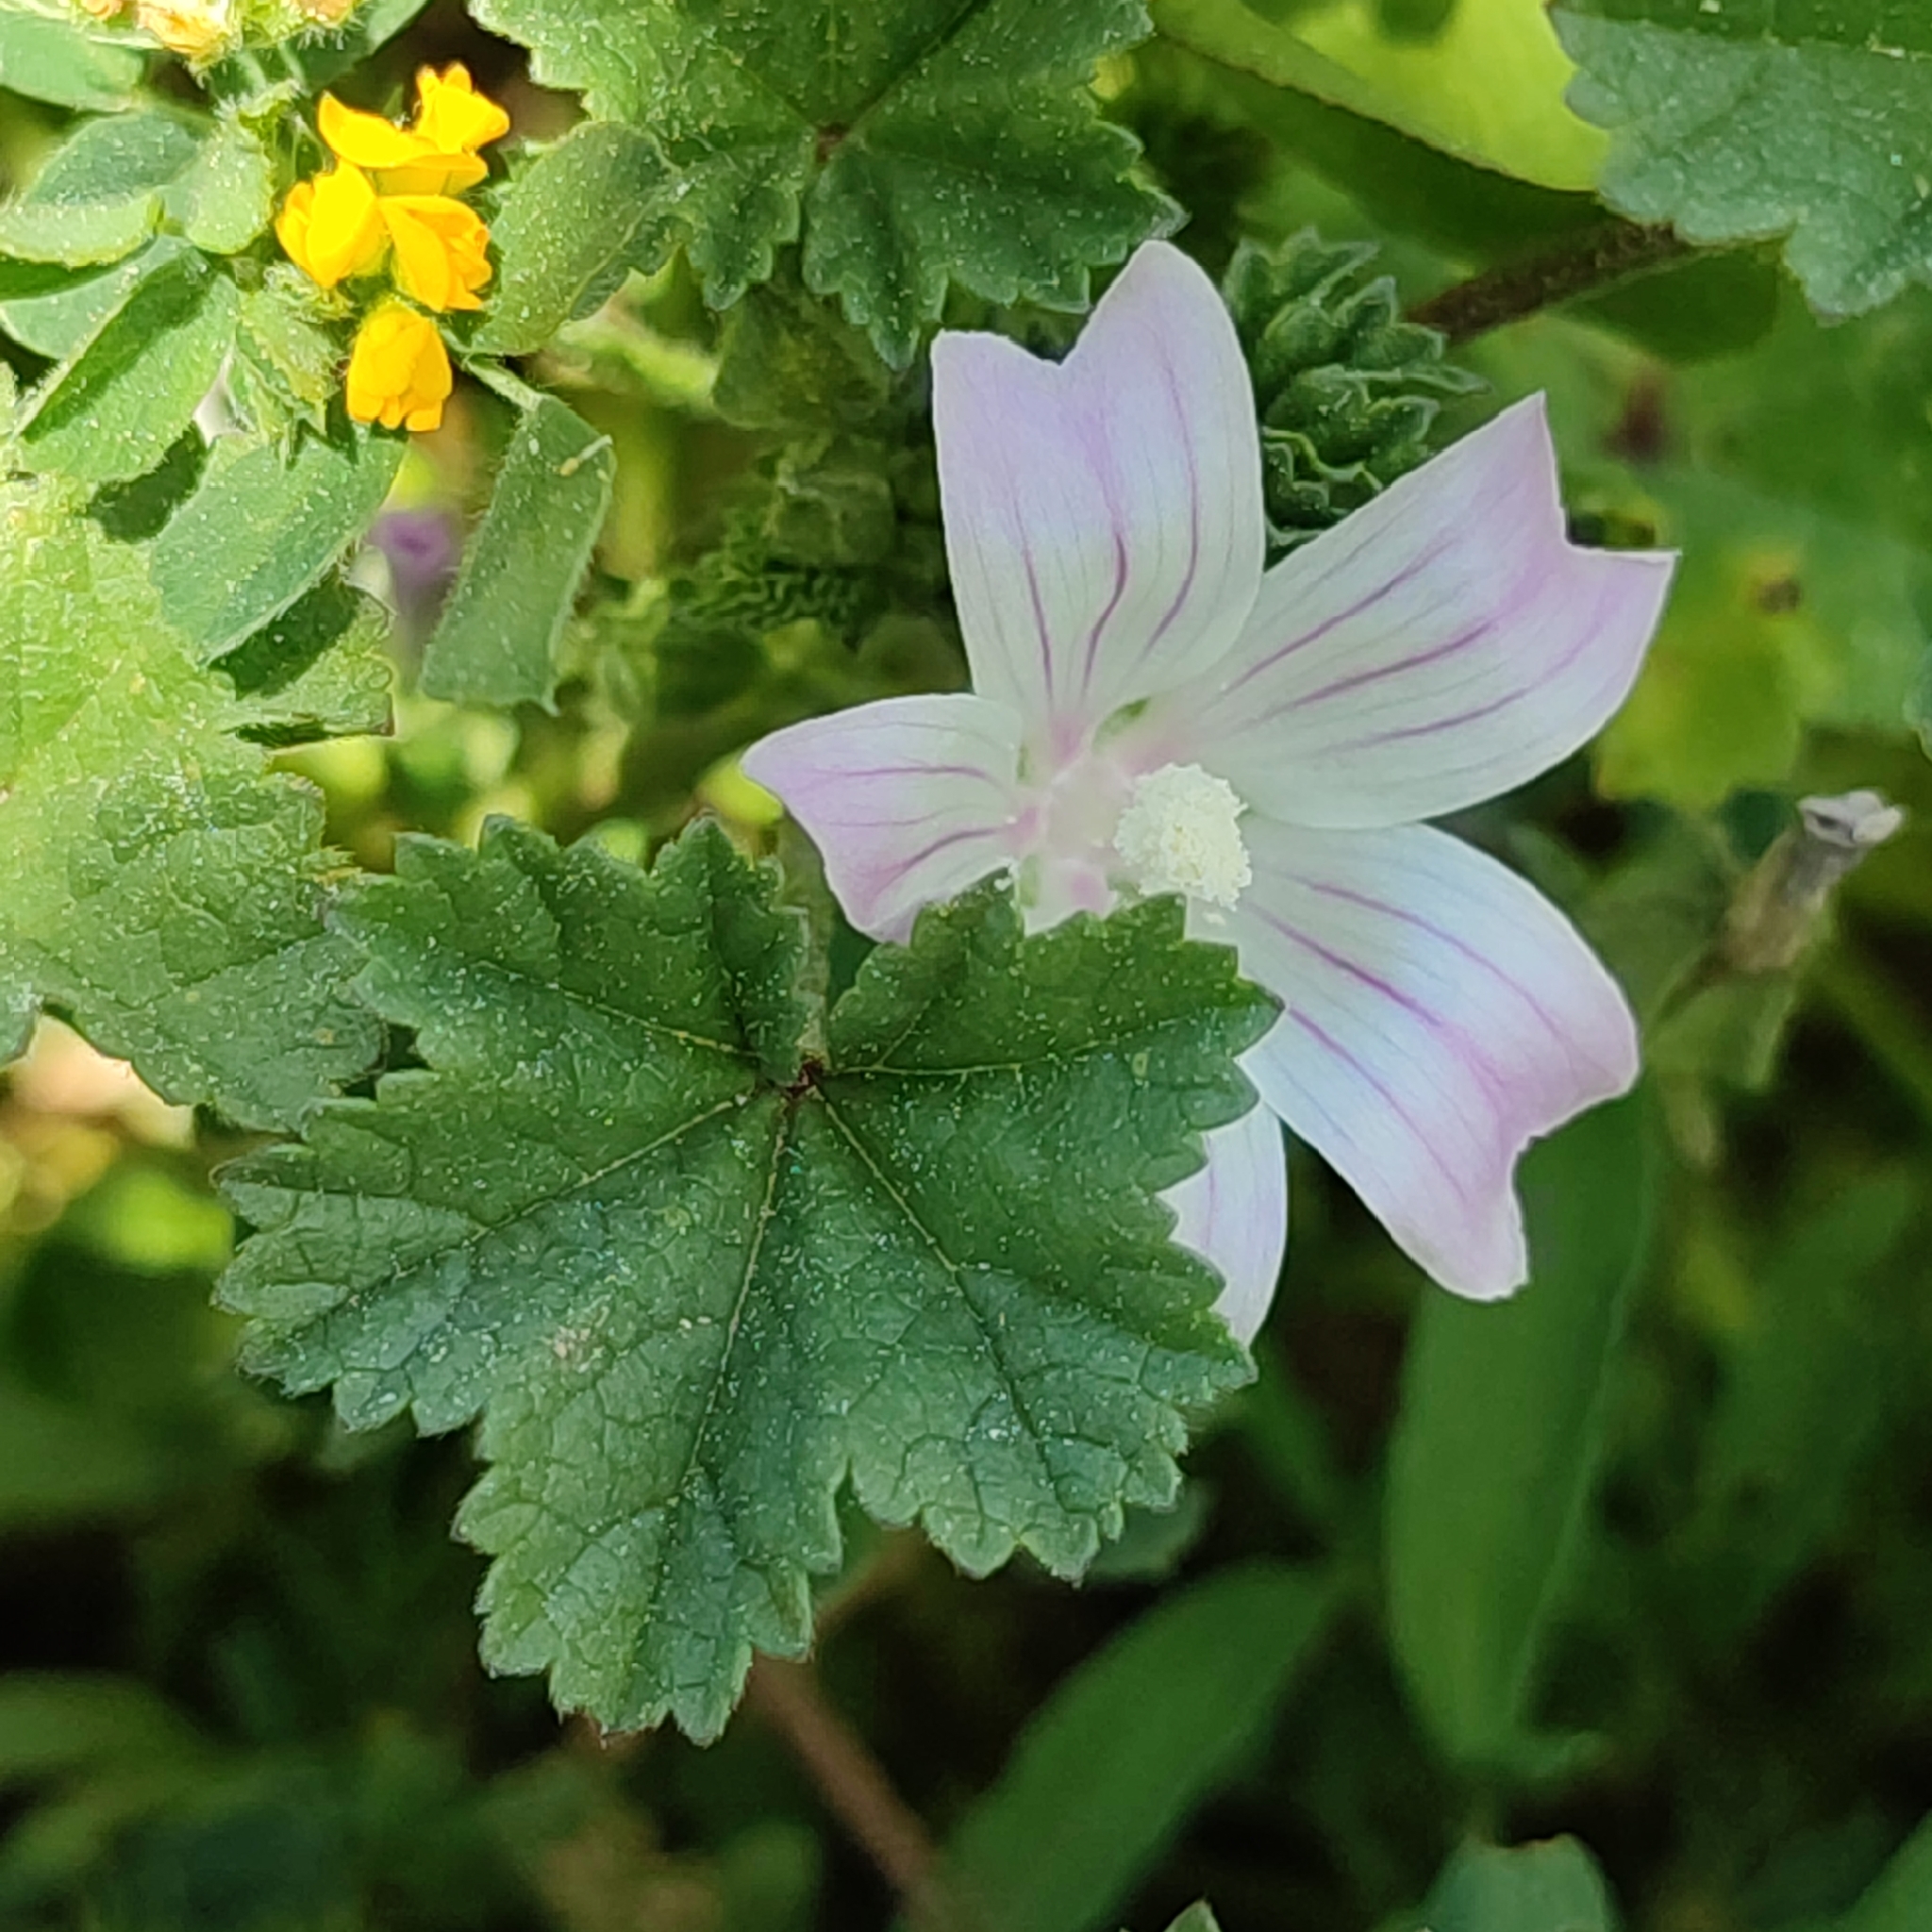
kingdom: Plantae
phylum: Tracheophyta
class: Magnoliopsida
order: Malvales
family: Malvaceae
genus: Malva
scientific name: Malva neglecta
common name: Common mallow
